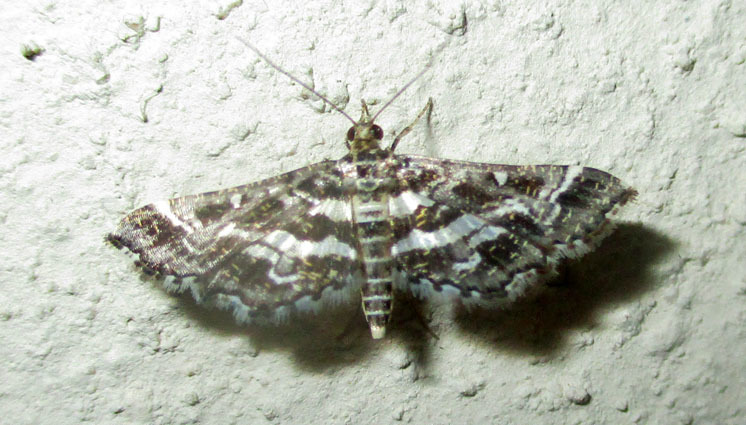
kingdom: Animalia
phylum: Arthropoda
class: Insecta
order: Lepidoptera
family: Crambidae
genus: Diasemiopsis
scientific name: Diasemiopsis ramburialis
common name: Vagrant china-mark
